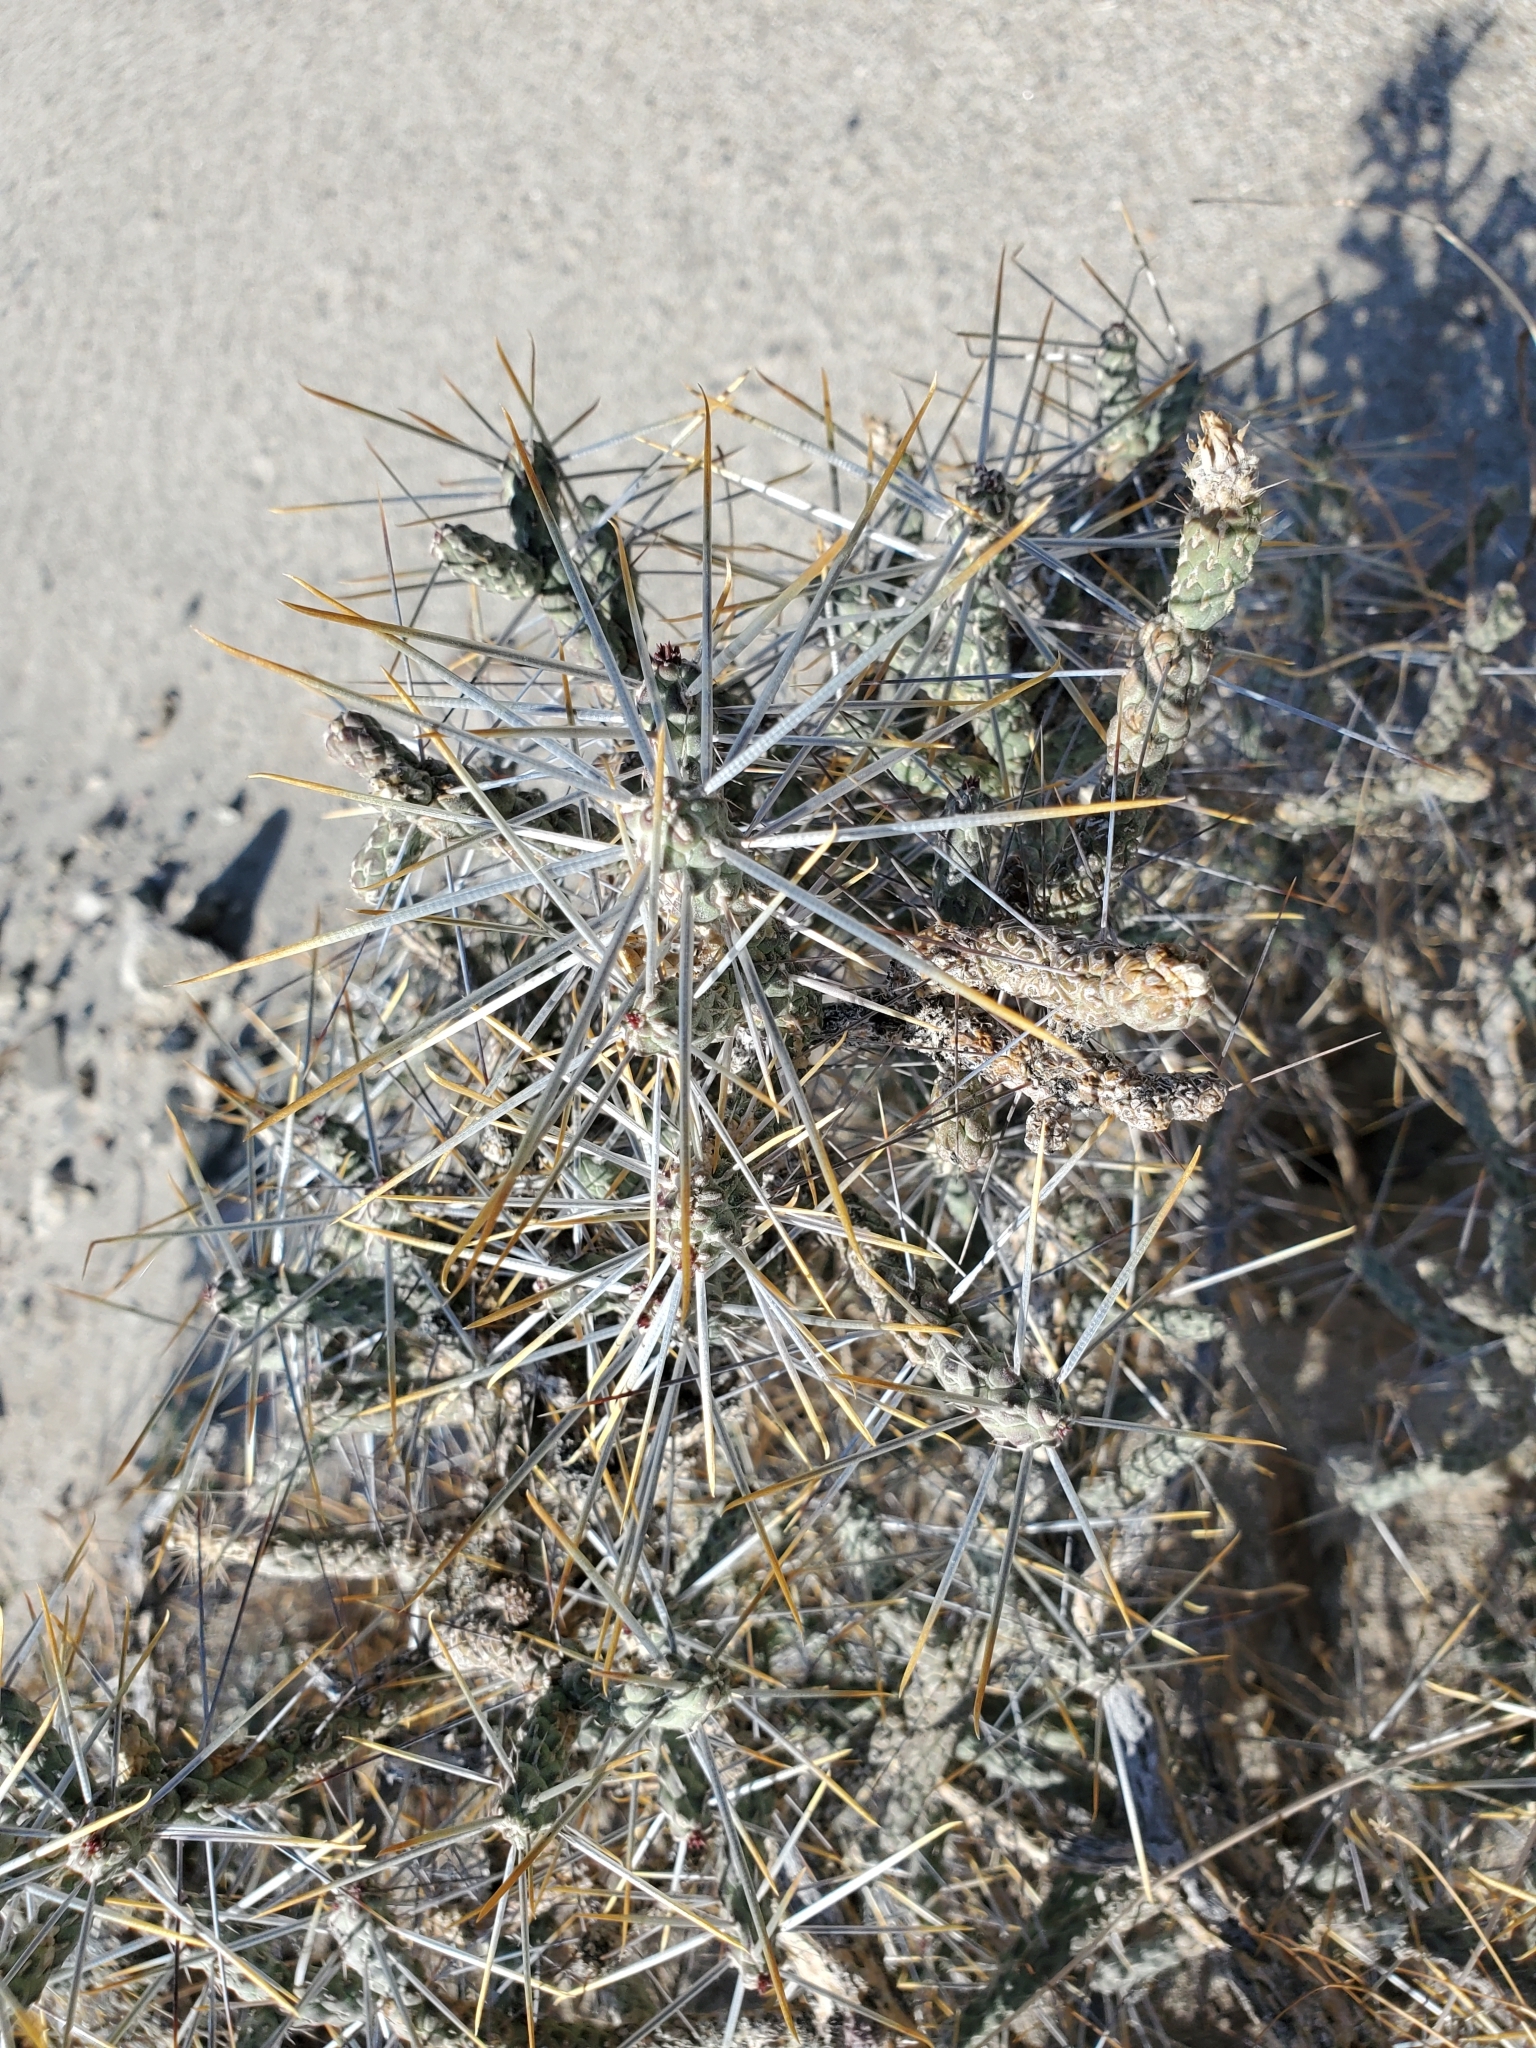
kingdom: Plantae
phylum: Tracheophyta
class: Magnoliopsida
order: Caryophyllales
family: Cactaceae
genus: Cylindropuntia
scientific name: Cylindropuntia ramosissima
